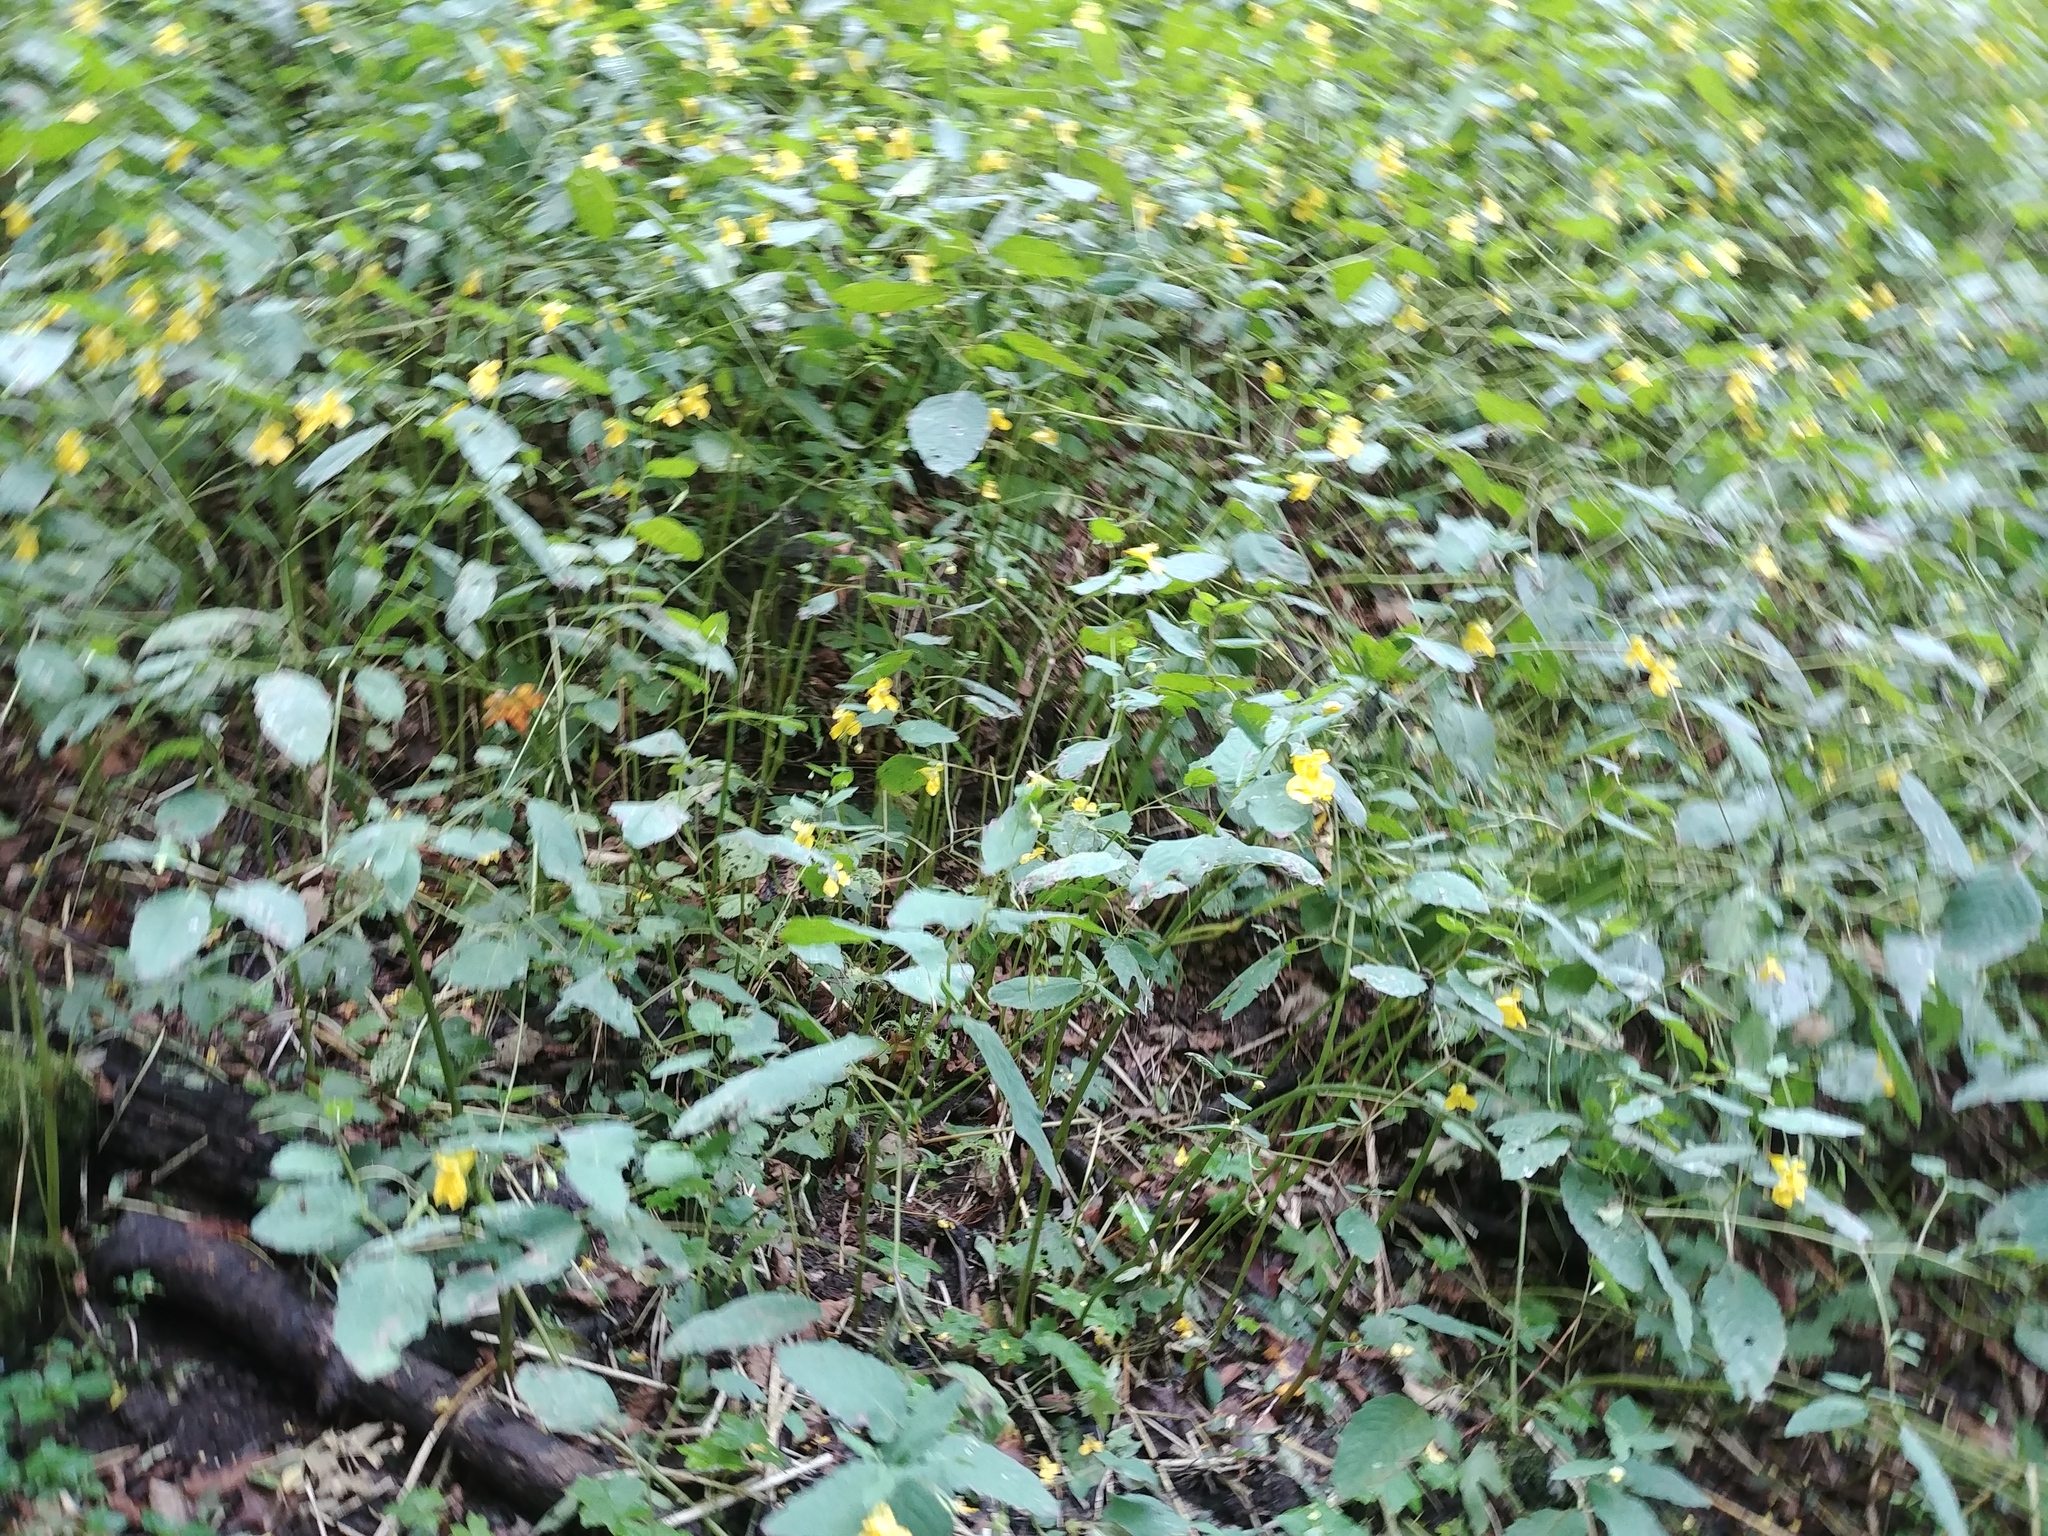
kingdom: Plantae
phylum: Tracheophyta
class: Magnoliopsida
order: Ericales
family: Balsaminaceae
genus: Impatiens
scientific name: Impatiens pallida
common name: Pale snapweed
